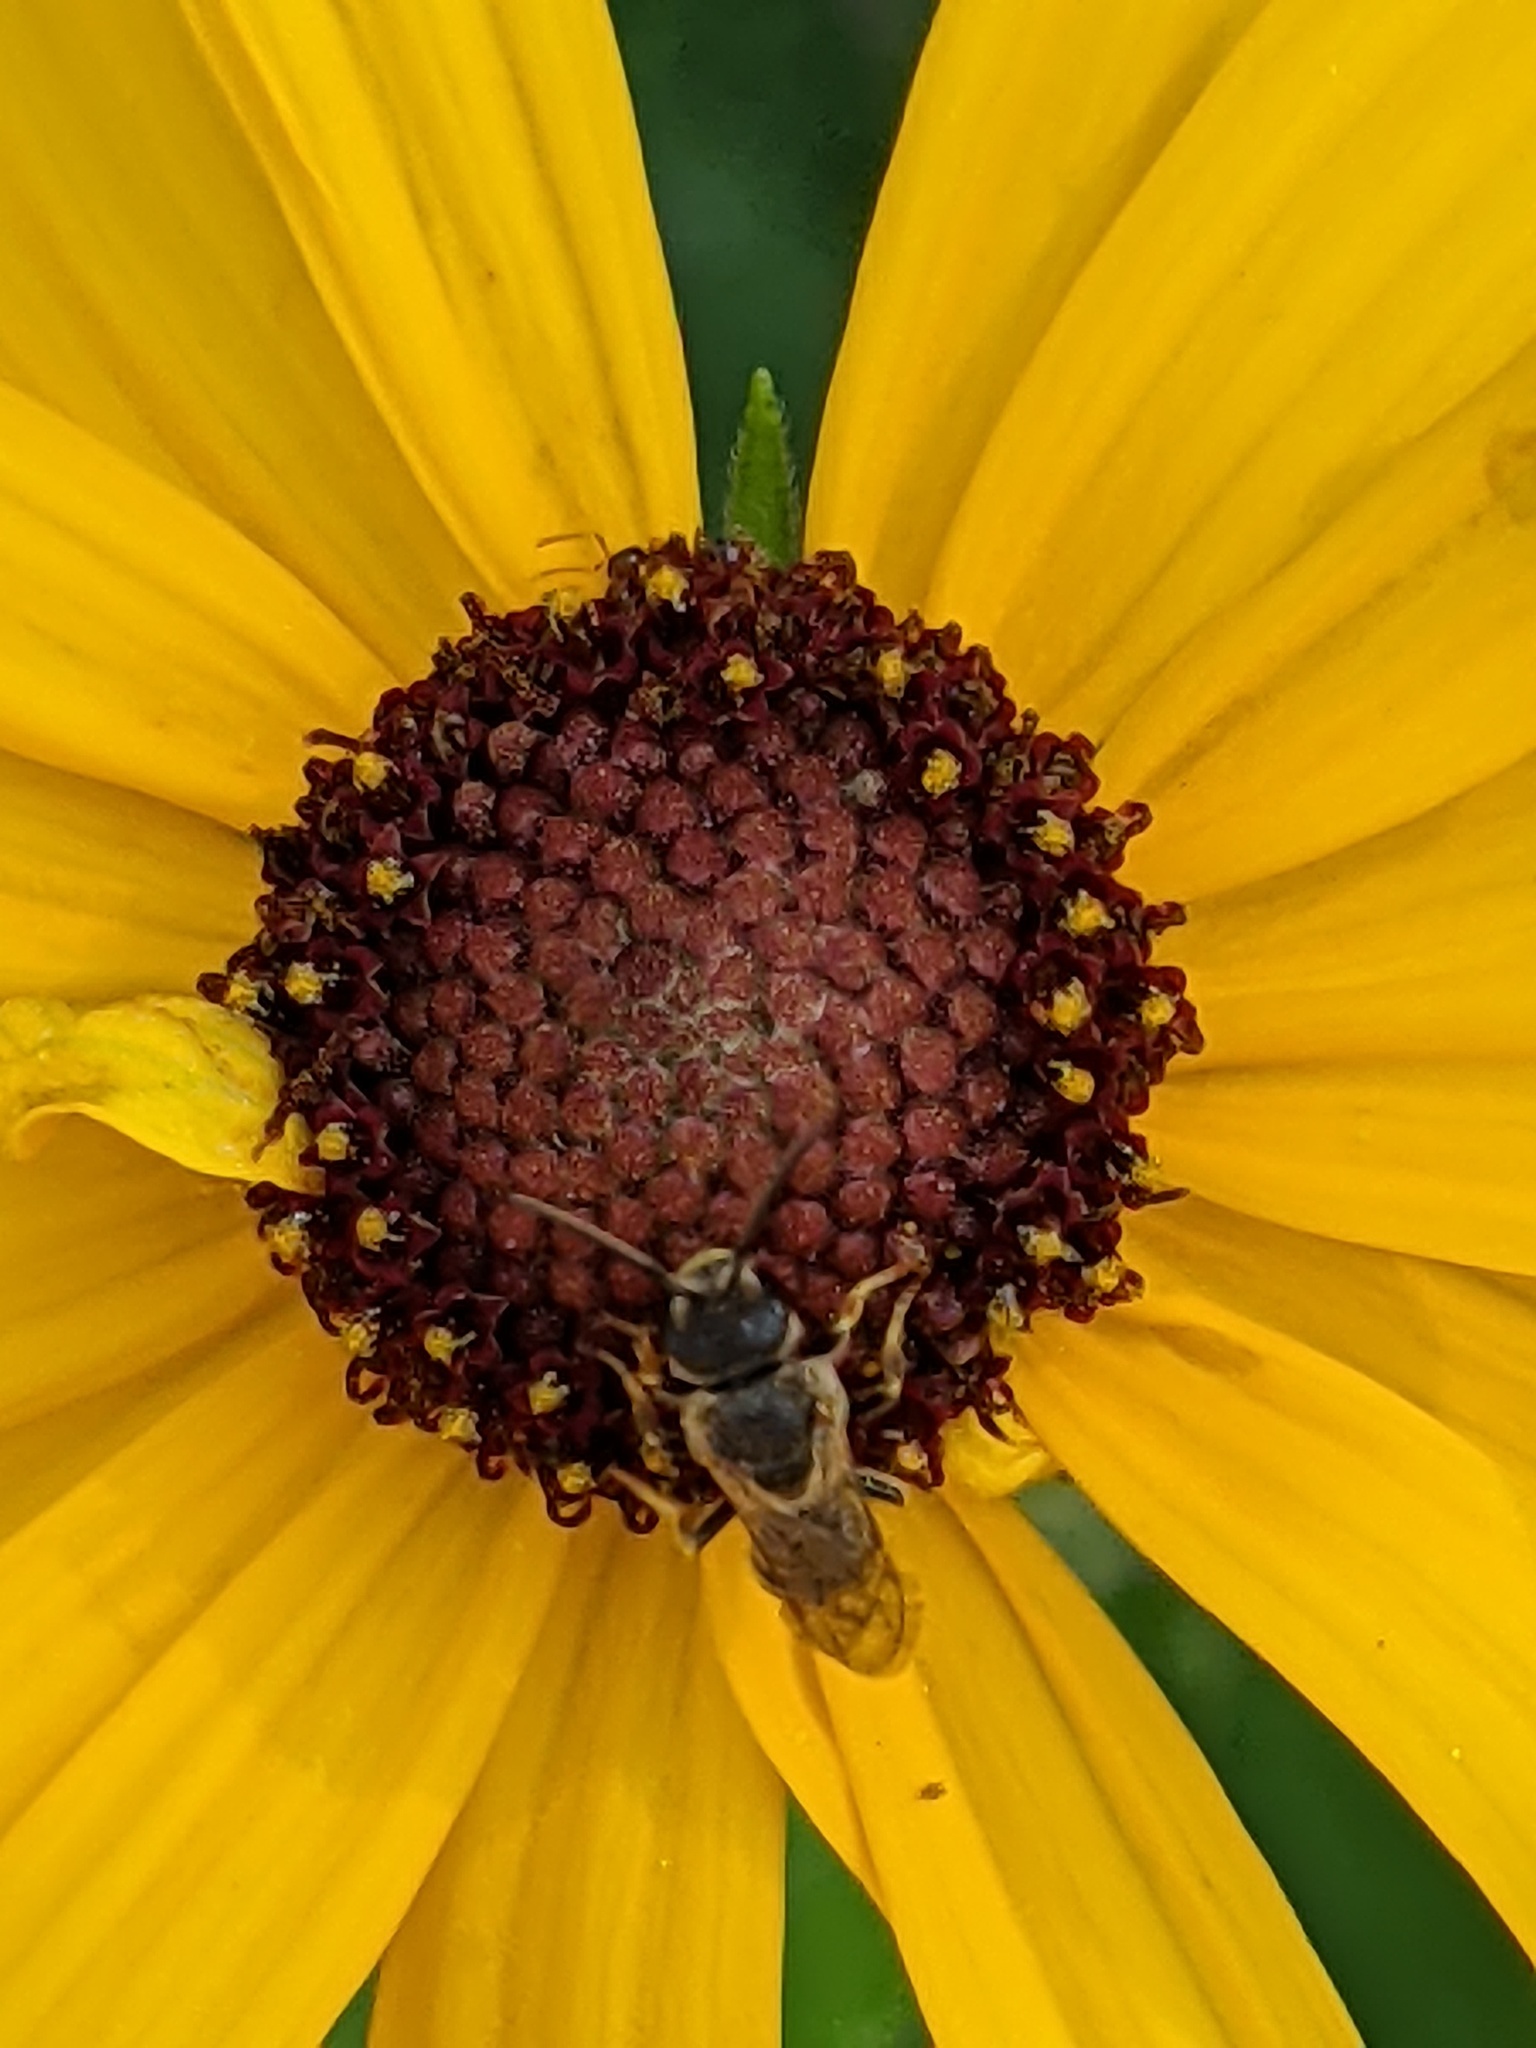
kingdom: Animalia
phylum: Arthropoda
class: Insecta
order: Hymenoptera
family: Halictidae
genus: Halictus
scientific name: Halictus ligatus
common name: Ligated furrow bee
